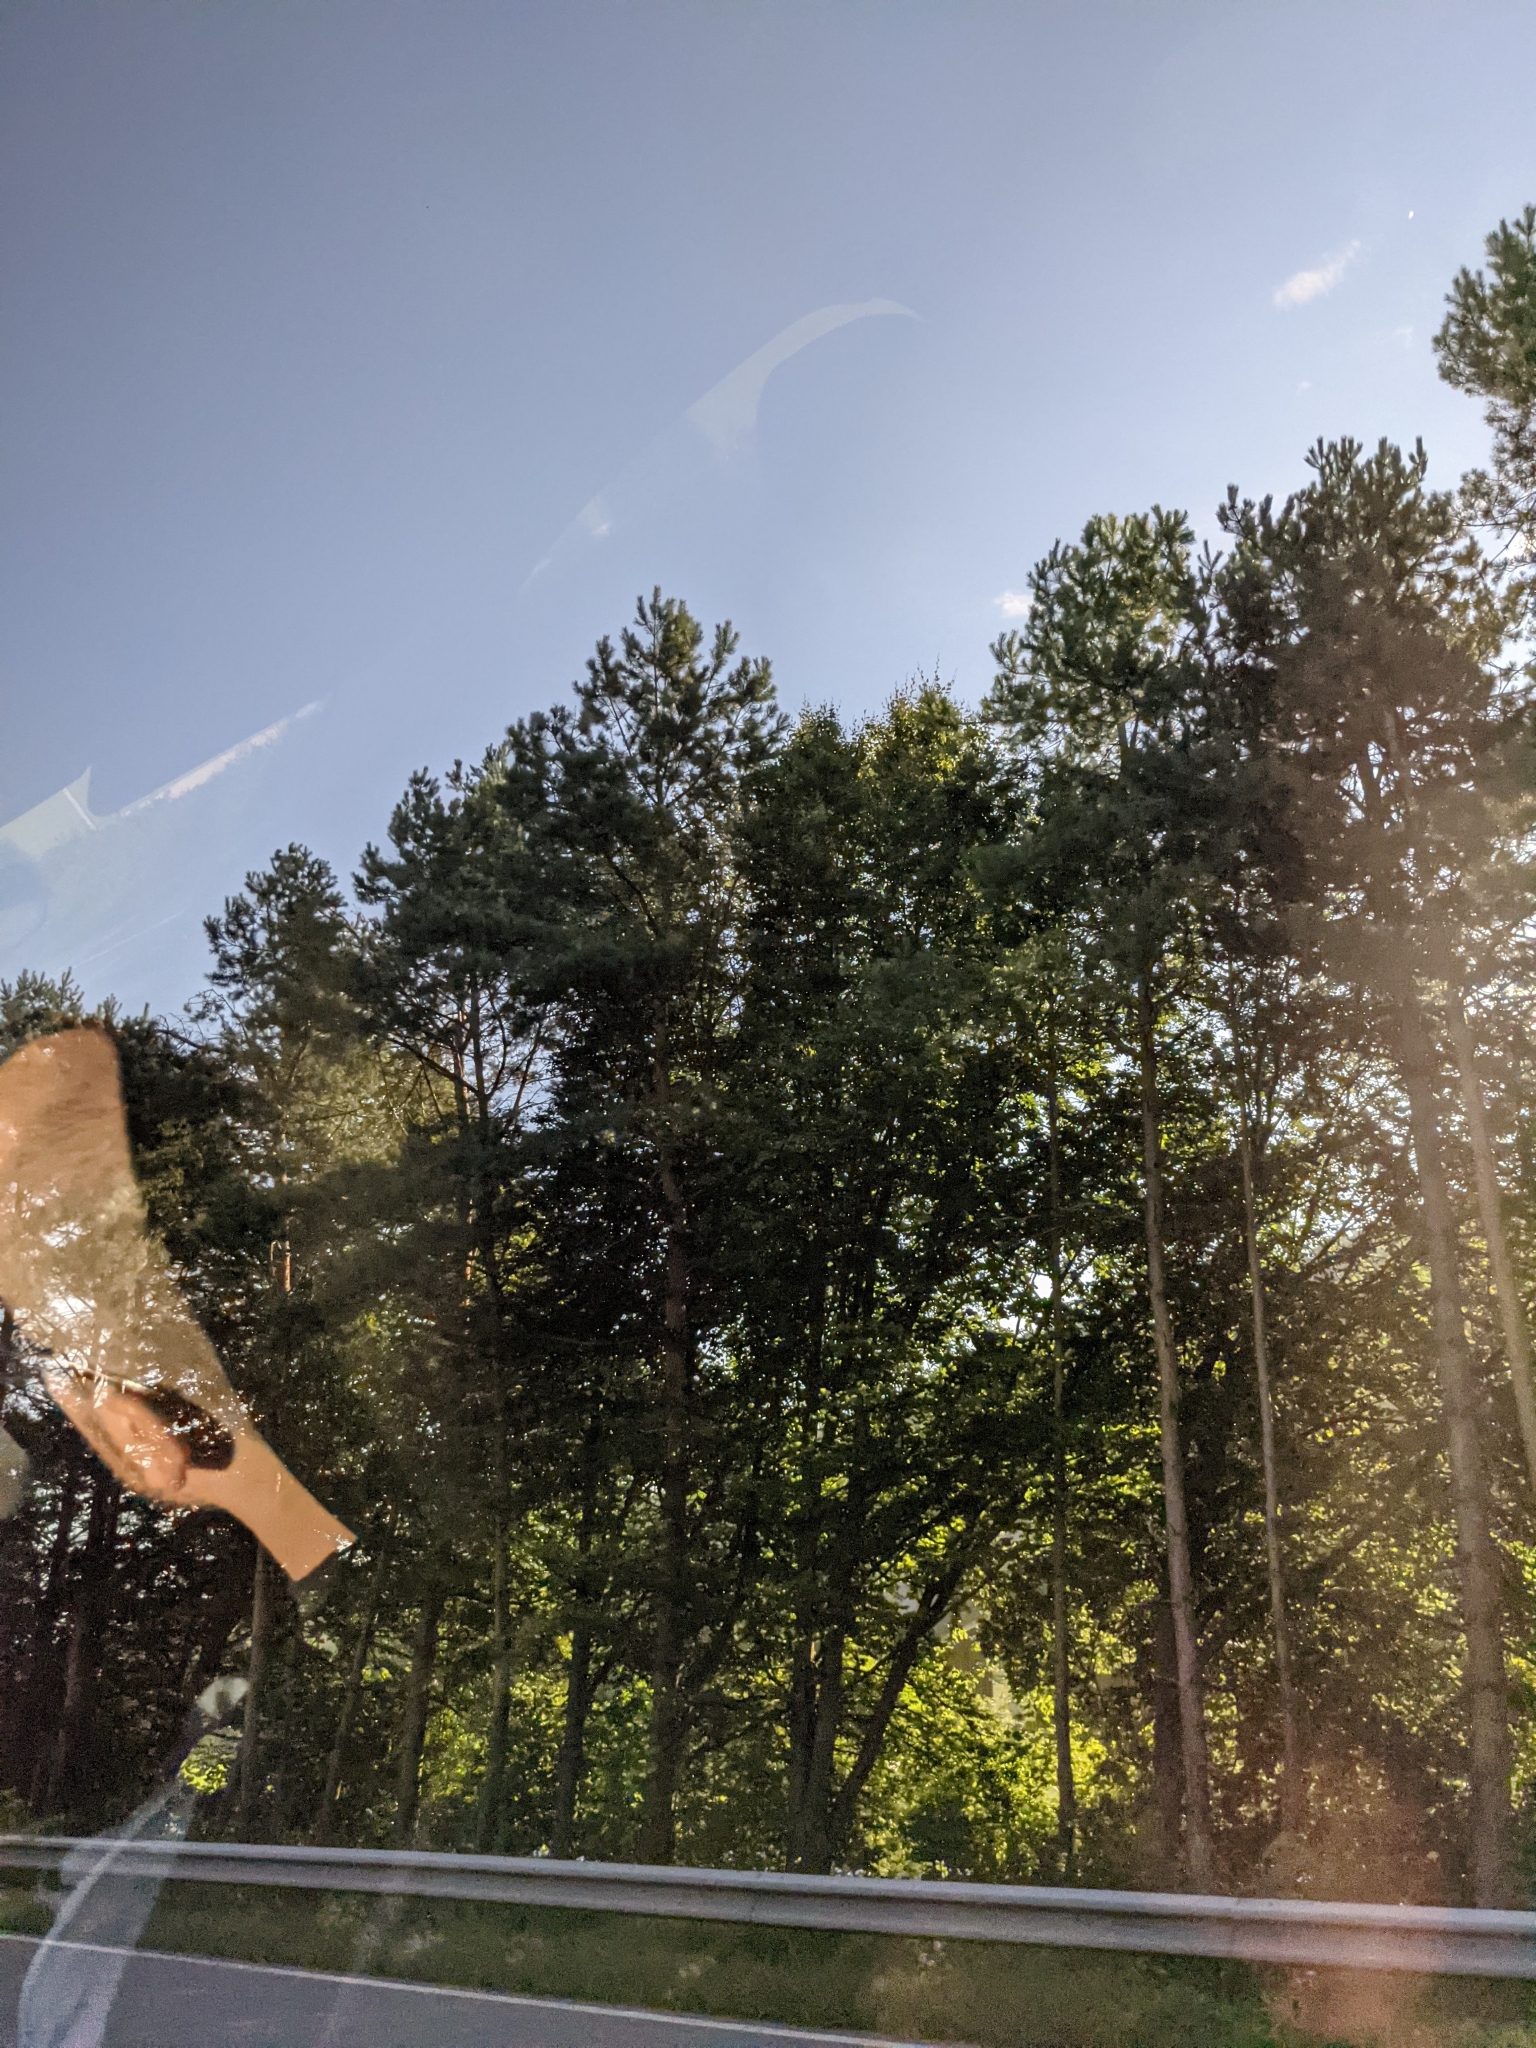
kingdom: Plantae
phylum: Tracheophyta
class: Pinopsida
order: Pinales
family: Pinaceae
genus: Pinus
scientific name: Pinus sylvestris
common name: Scots pine
